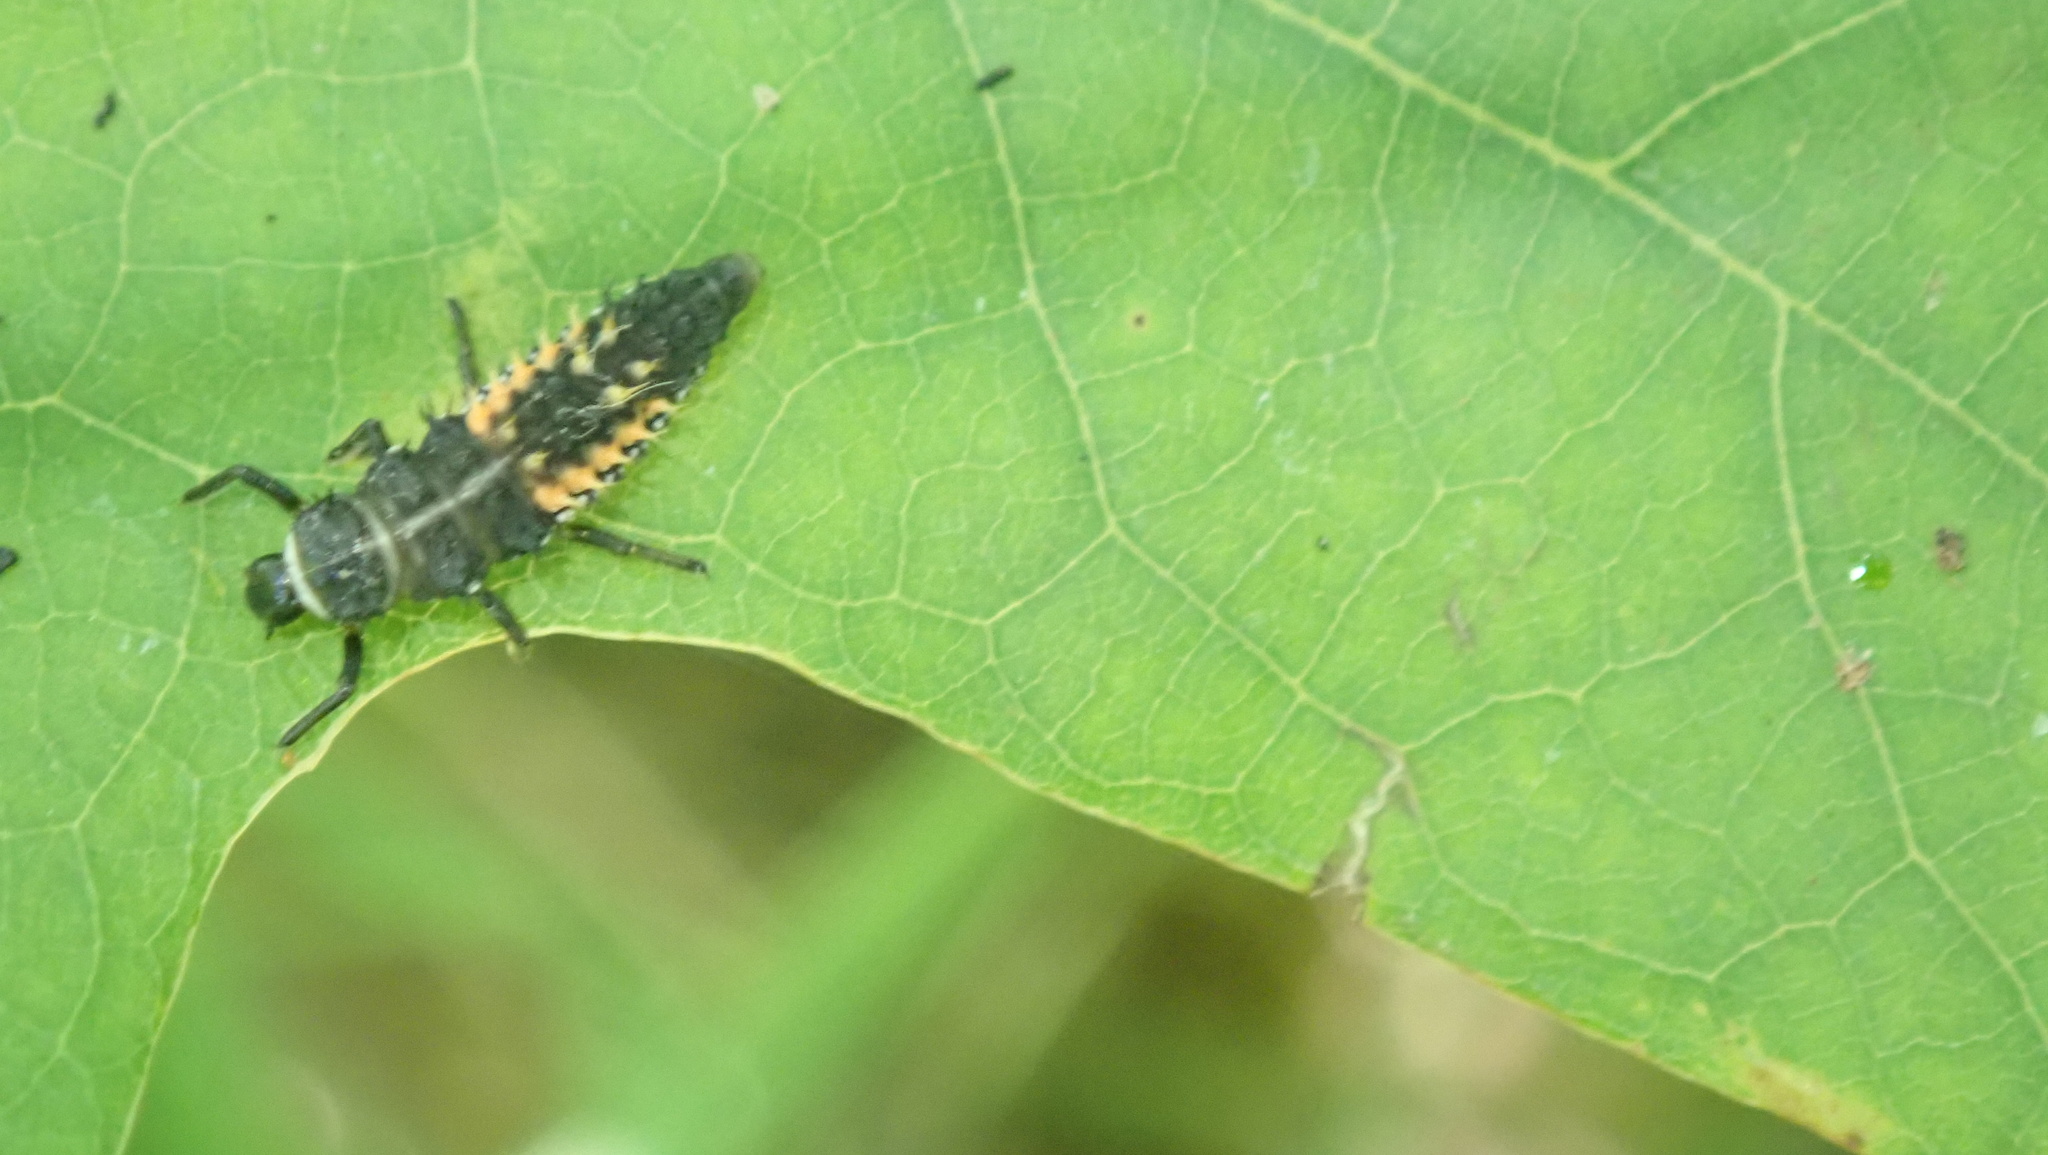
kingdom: Animalia
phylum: Arthropoda
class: Insecta
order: Coleoptera
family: Coccinellidae
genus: Harmonia
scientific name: Harmonia axyridis
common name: Harlequin ladybird
